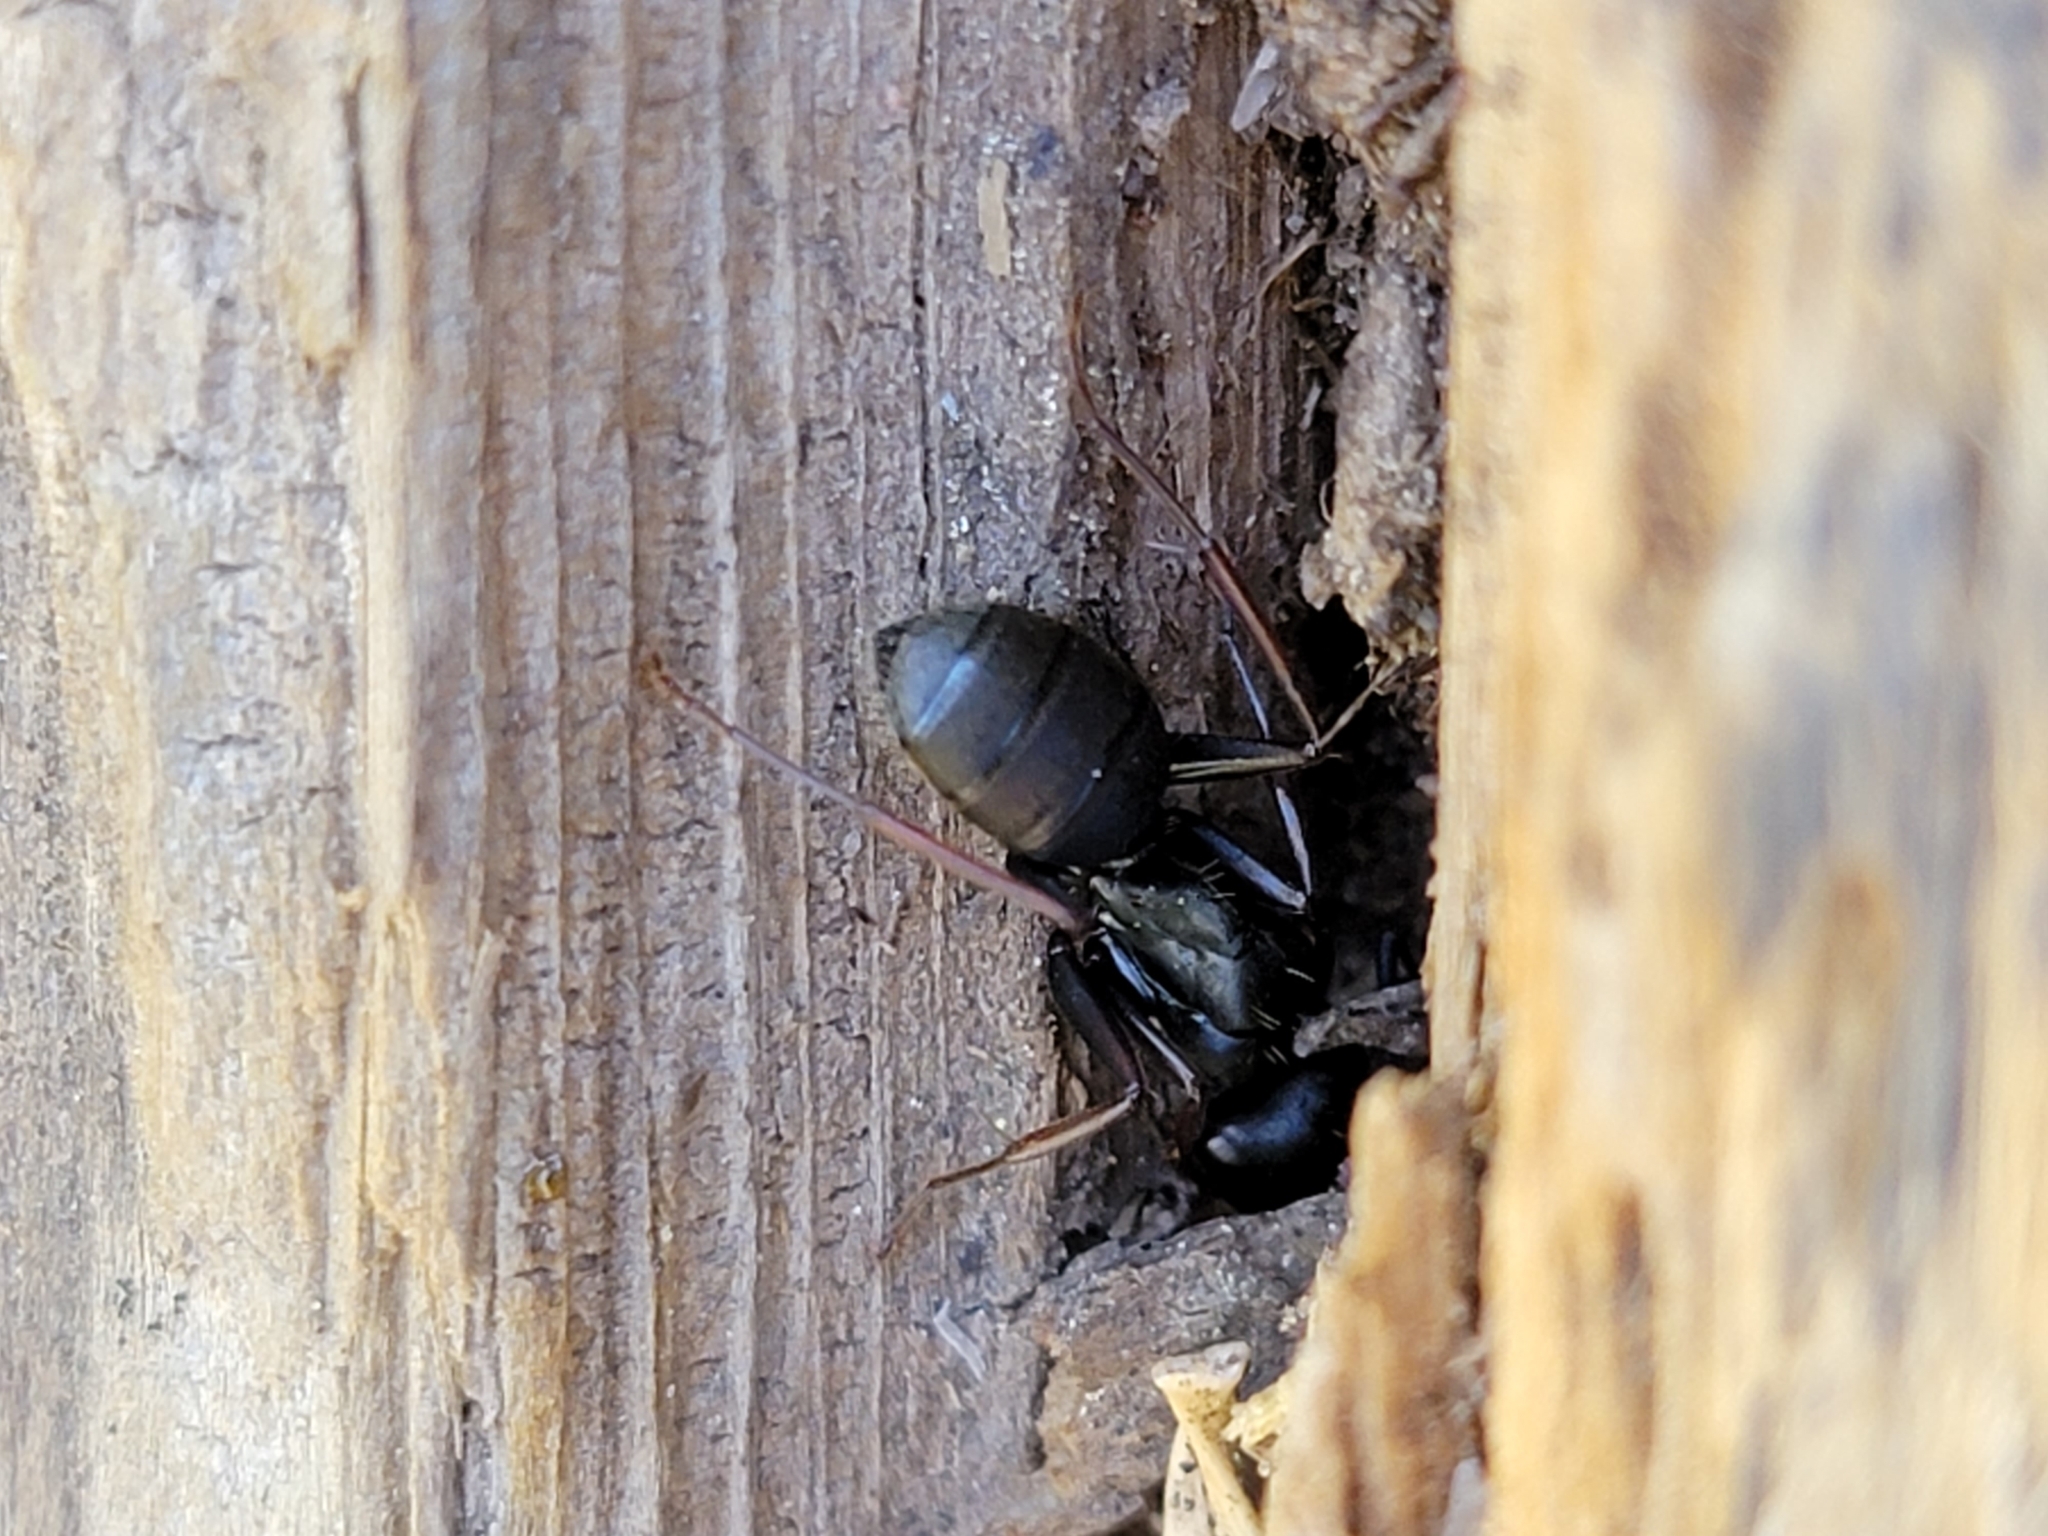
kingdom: Animalia
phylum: Arthropoda
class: Insecta
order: Hymenoptera
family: Formicidae
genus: Camponotus
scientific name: Camponotus modoc
